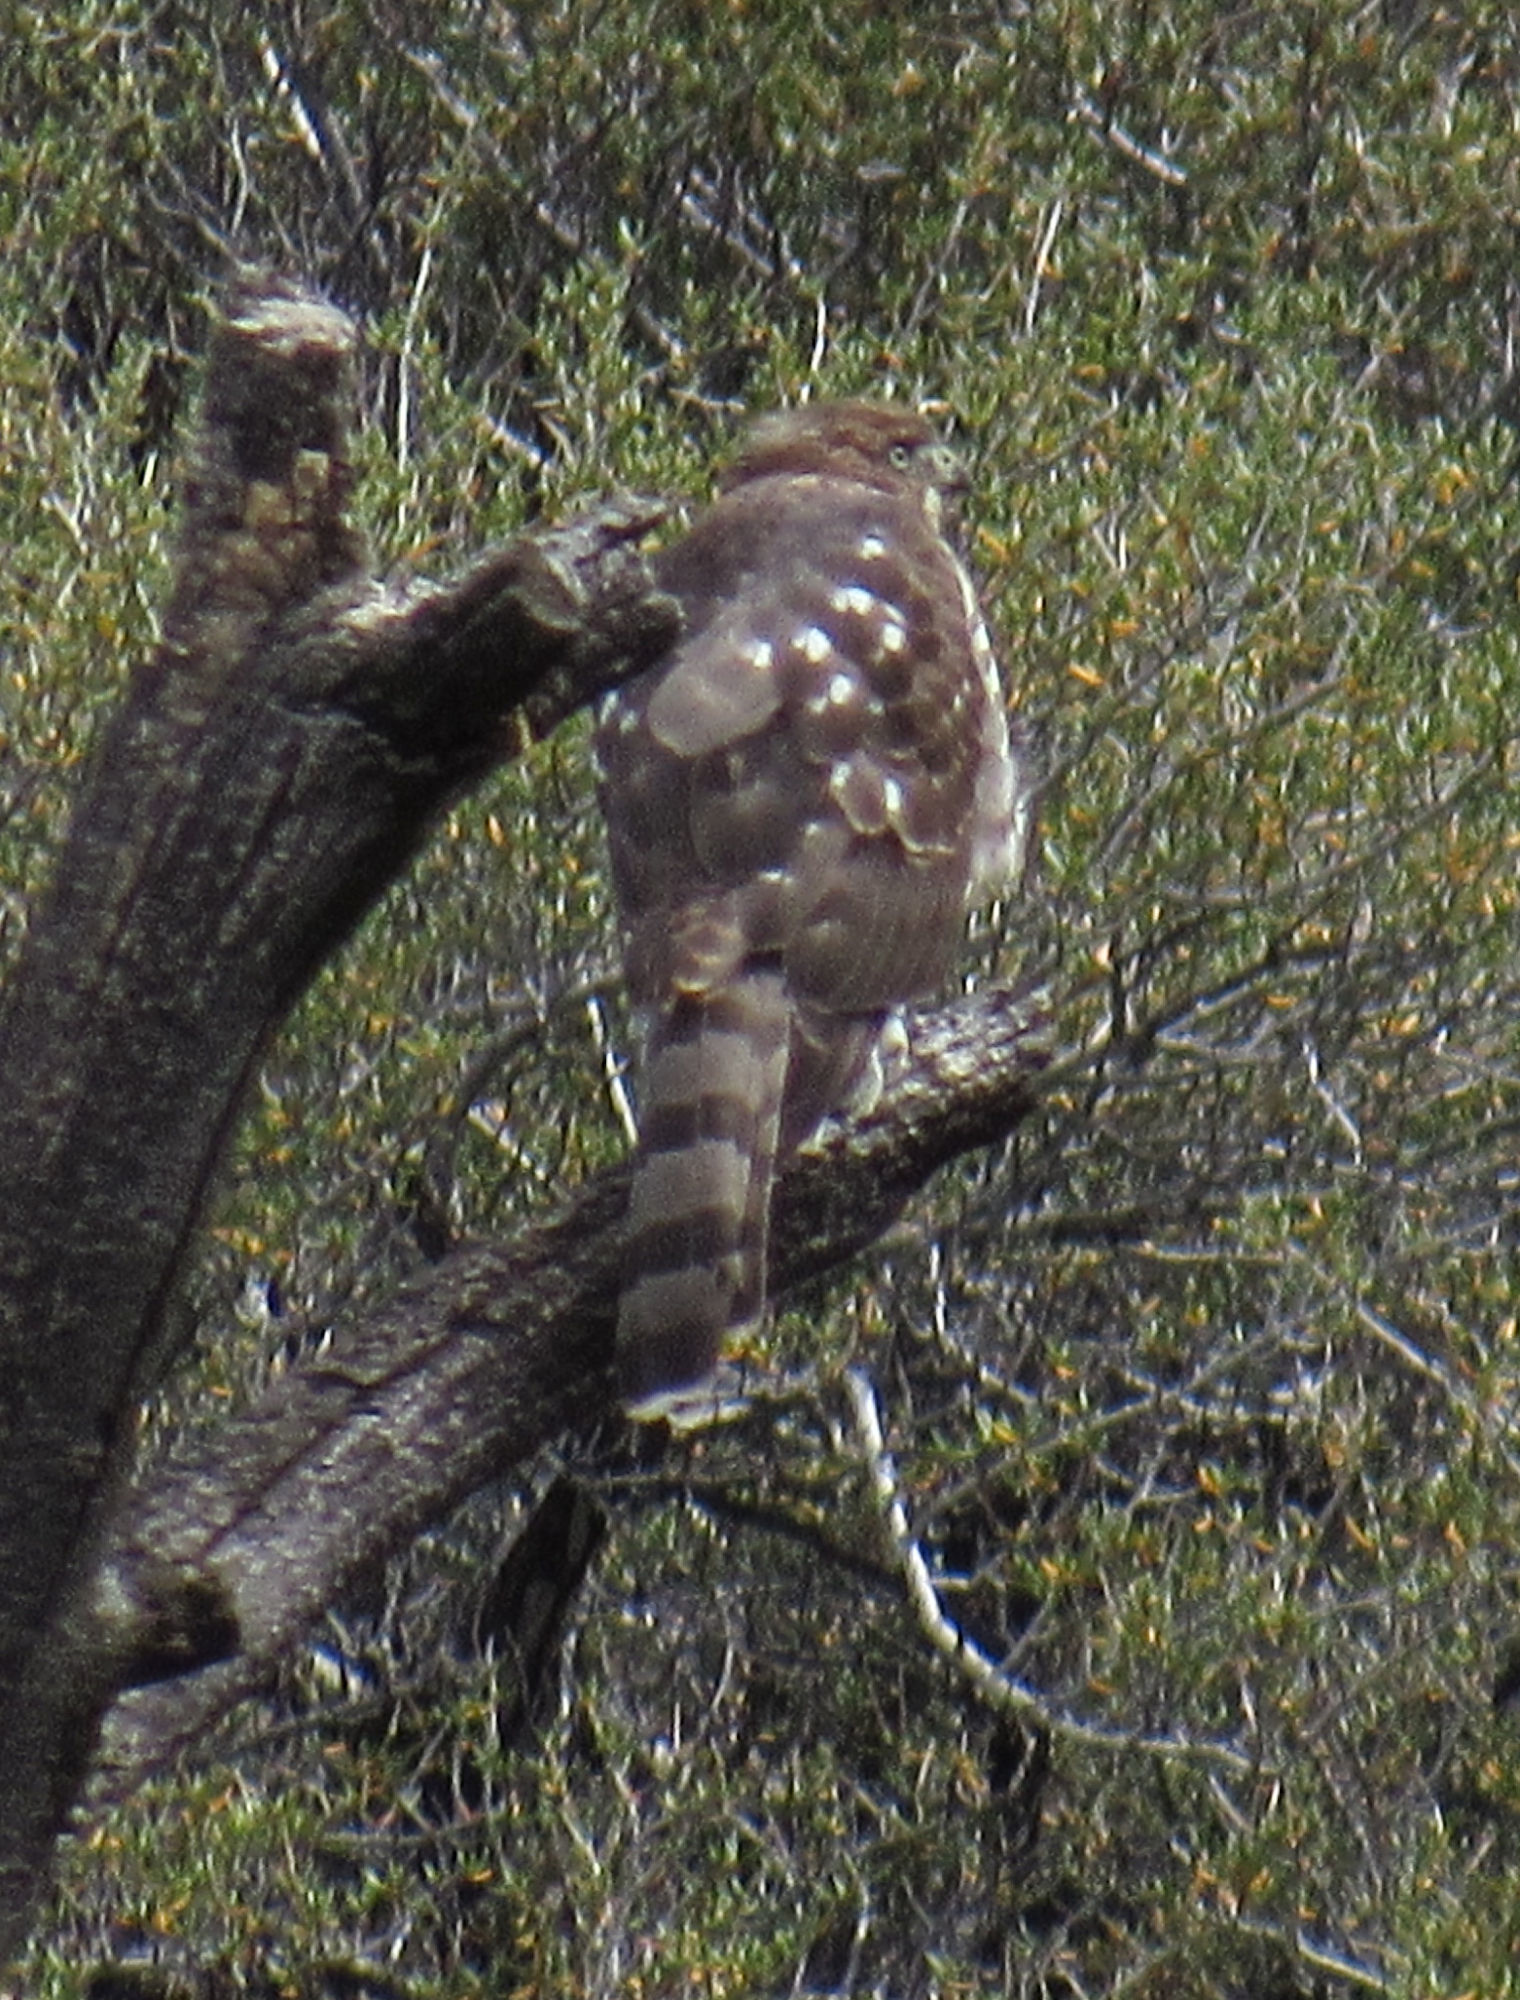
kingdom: Animalia
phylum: Chordata
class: Aves
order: Accipitriformes
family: Accipitridae
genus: Accipiter
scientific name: Accipiter cooperii
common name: Cooper's hawk
